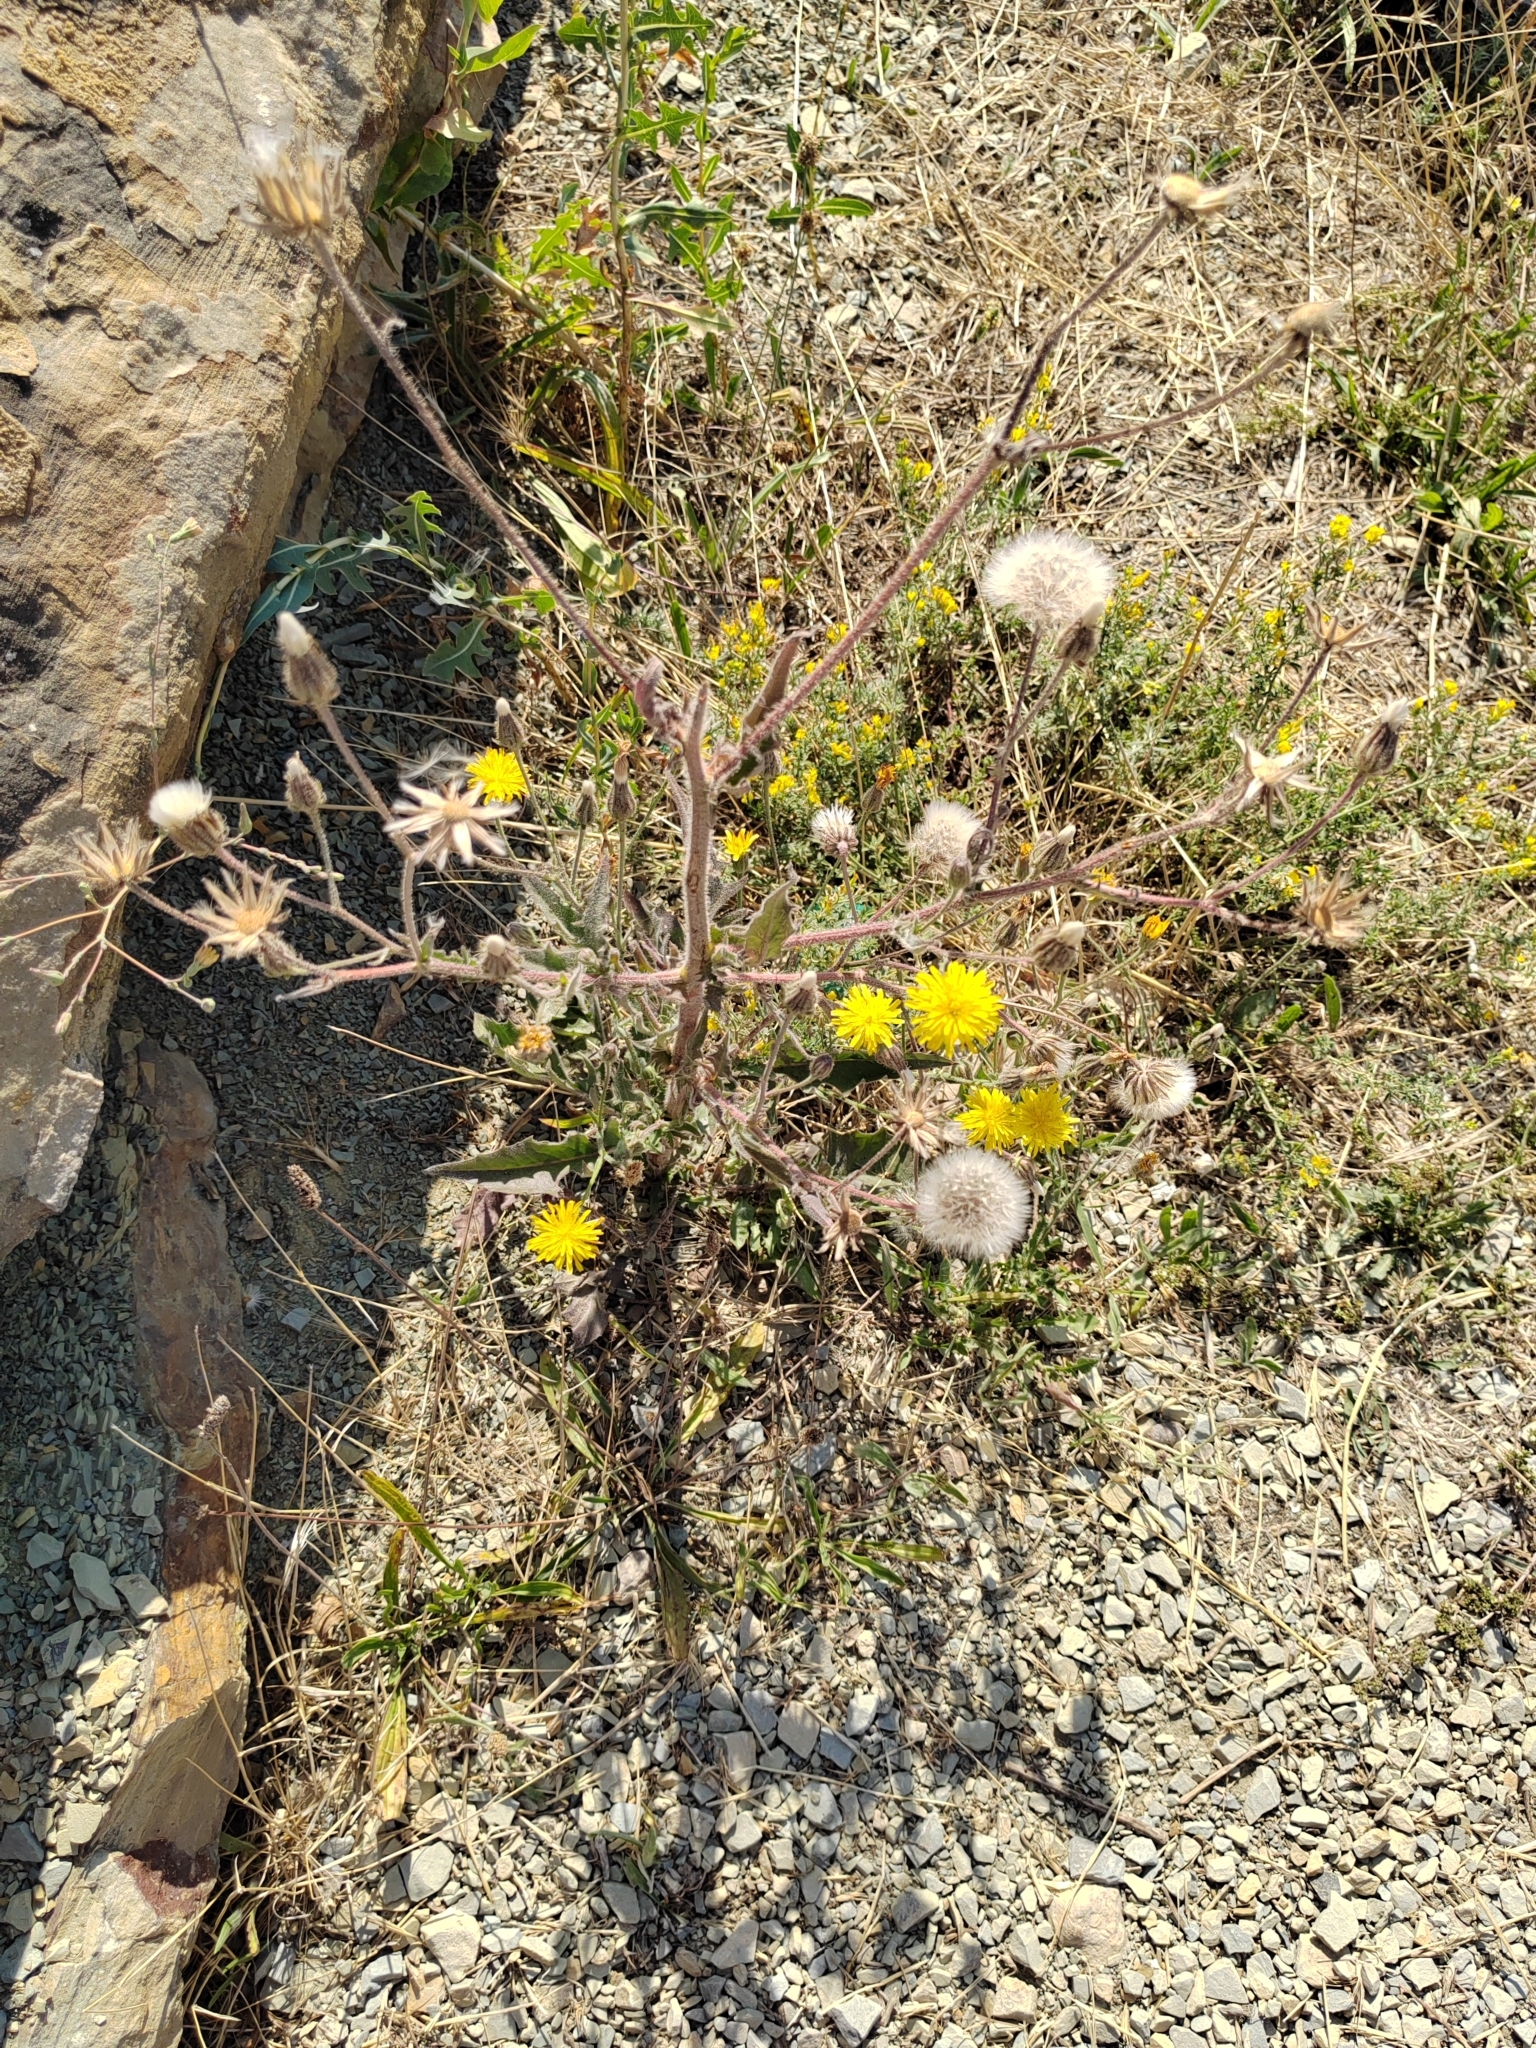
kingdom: Plantae
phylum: Tracheophyta
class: Magnoliopsida
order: Asterales
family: Asteraceae
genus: Crepis
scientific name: Crepis foetida
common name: Stinking hawk's-beard
